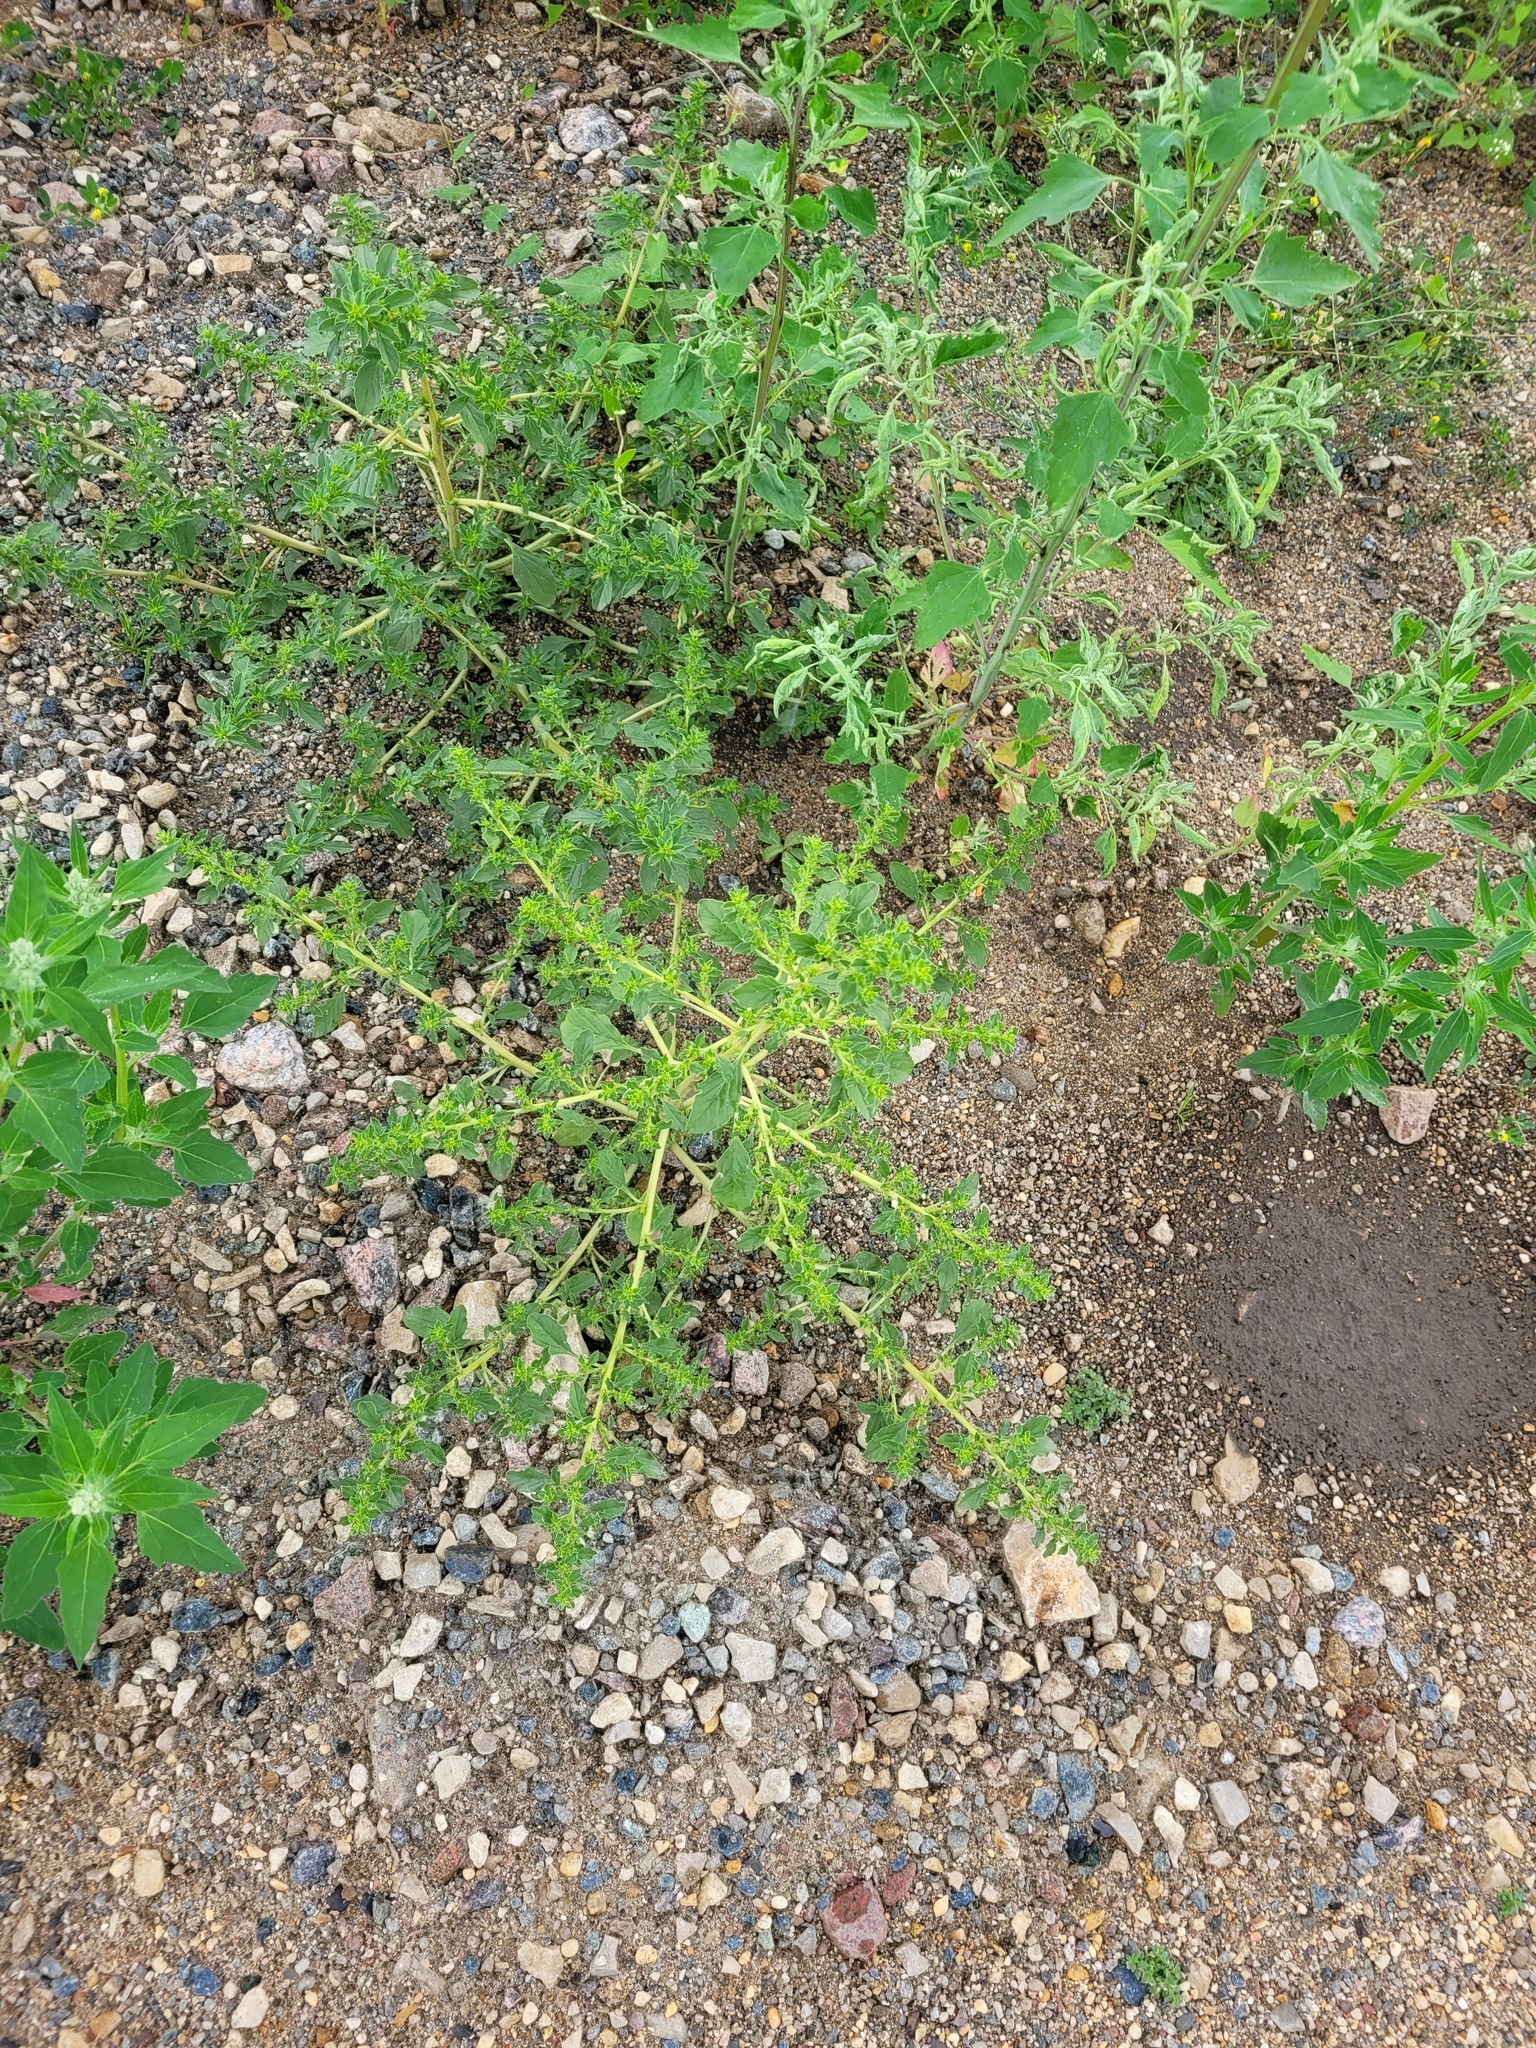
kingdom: Plantae
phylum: Tracheophyta
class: Magnoliopsida
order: Caryophyllales
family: Amaranthaceae
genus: Amaranthus
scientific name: Amaranthus albus
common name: White pigweed
